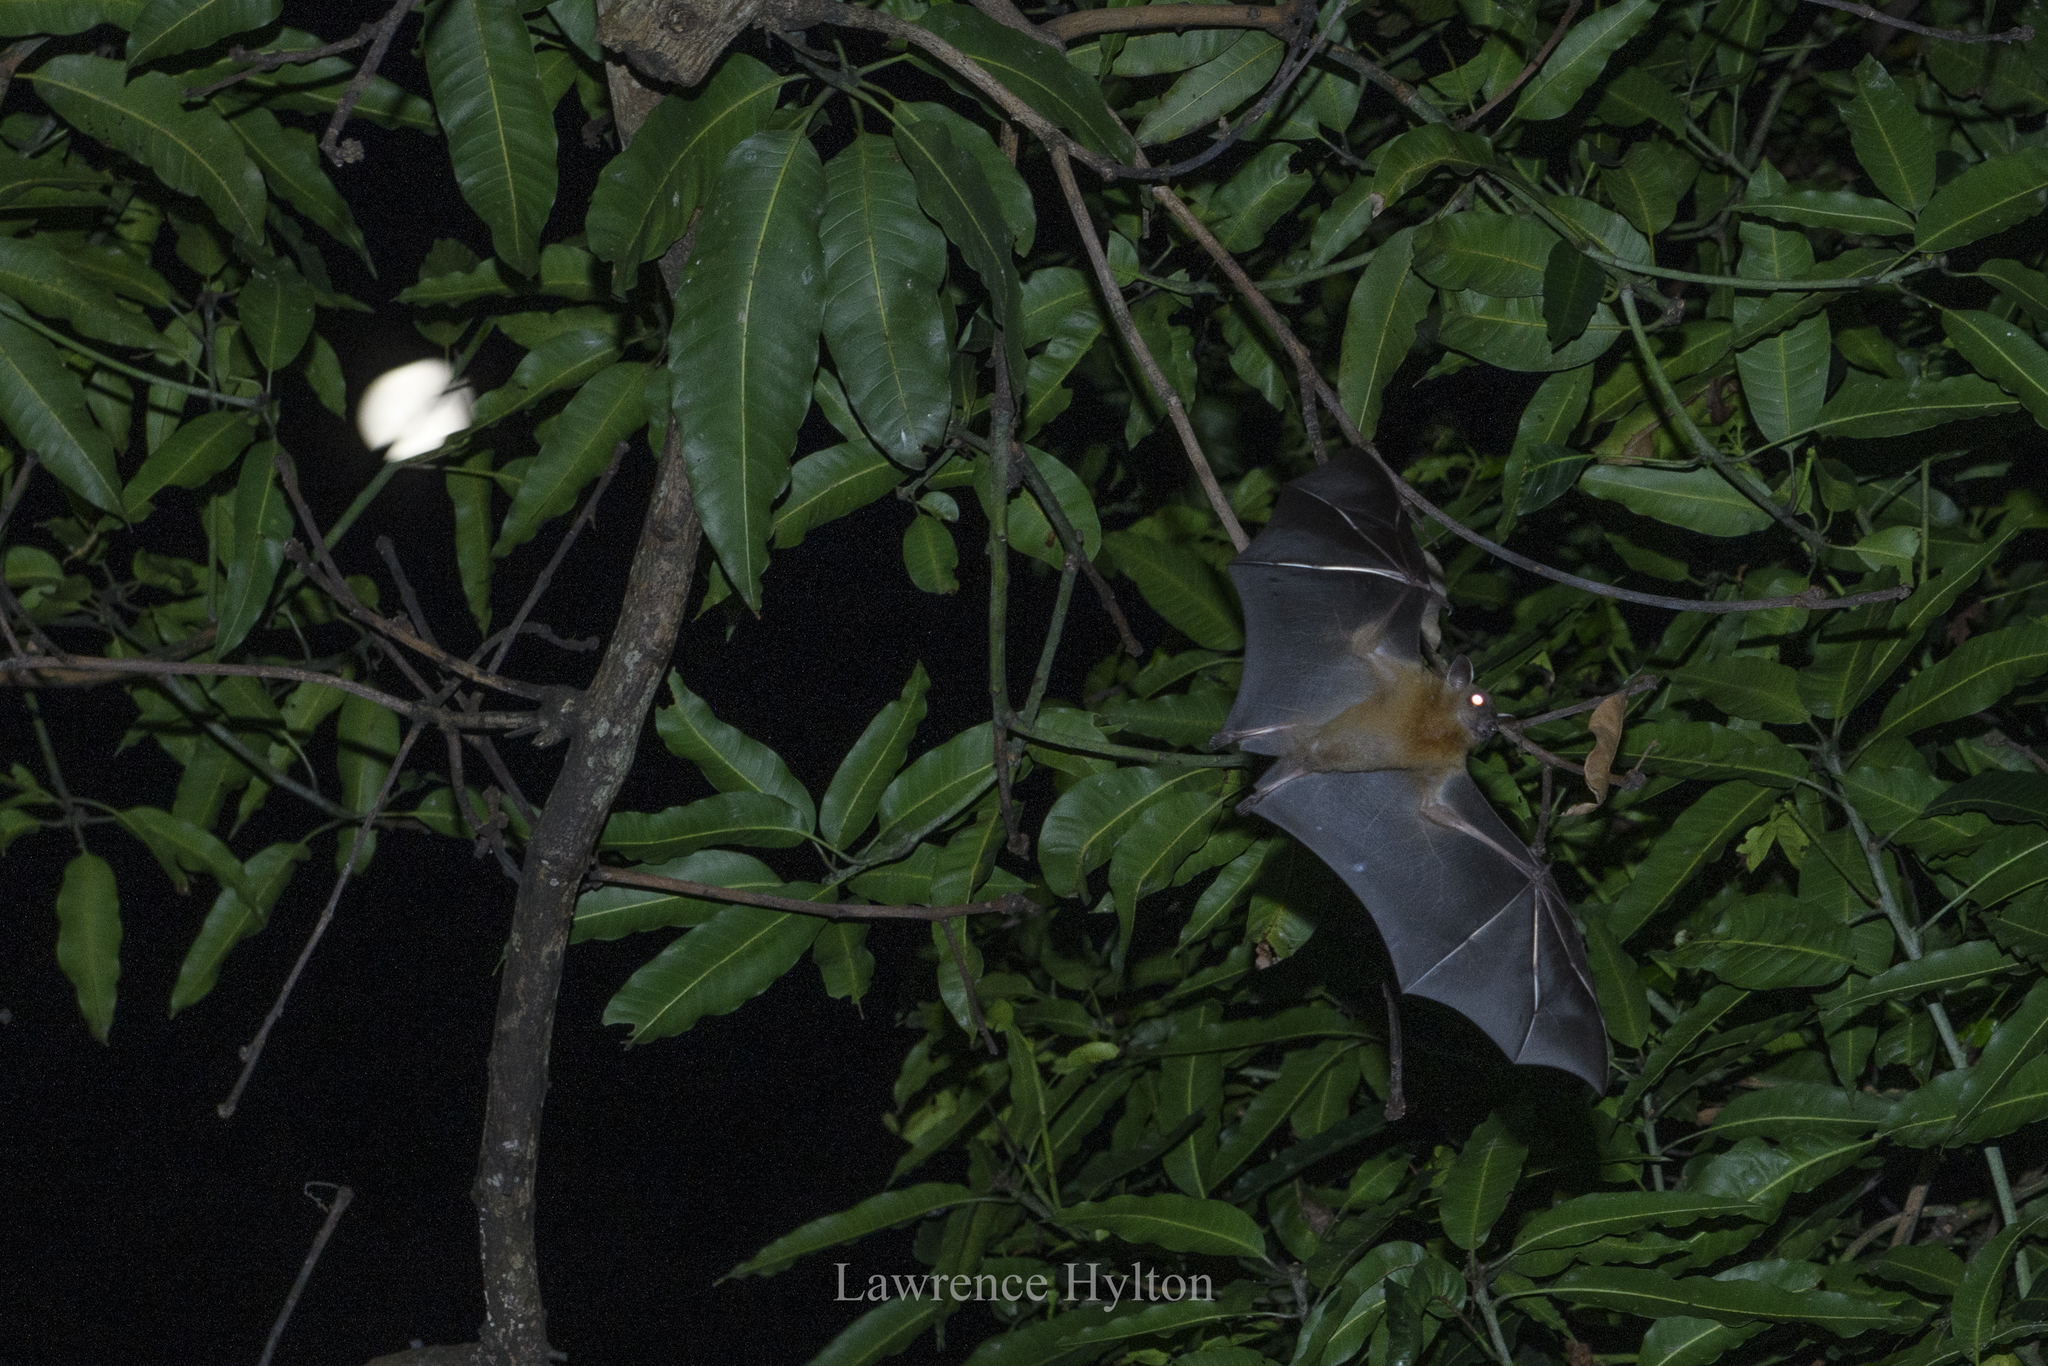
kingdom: Animalia
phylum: Chordata
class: Mammalia
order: Chiroptera
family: Pteropodidae
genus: Cynopterus
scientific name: Cynopterus sphinx
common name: Greater short-nosed fruit bat
